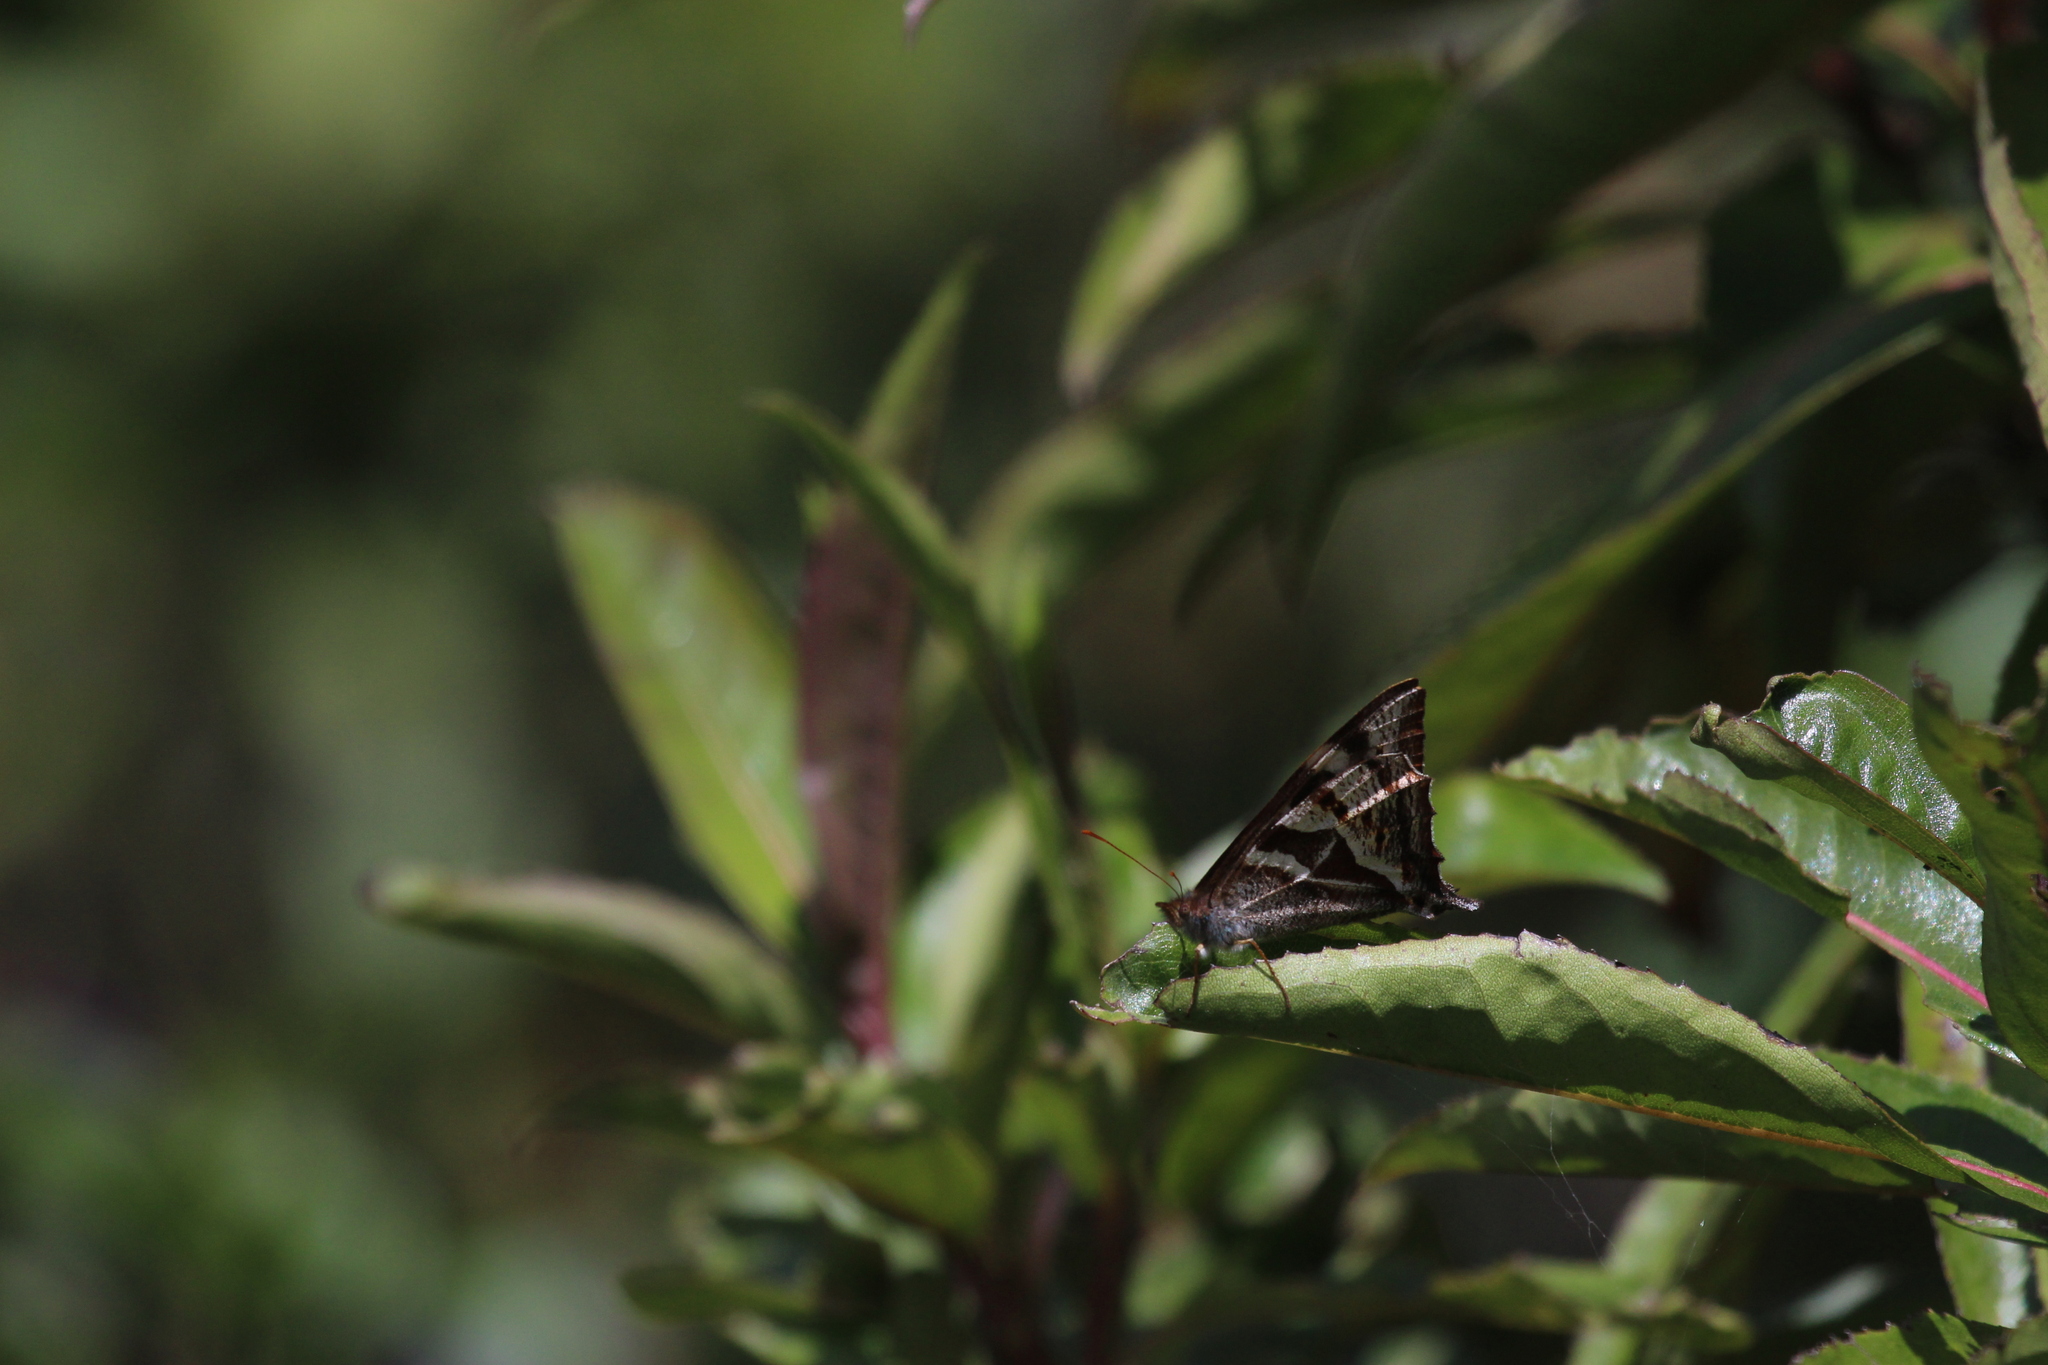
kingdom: Animalia
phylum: Arthropoda
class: Insecta
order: Lepidoptera
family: Nymphalidae
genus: Corades
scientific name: Corades
